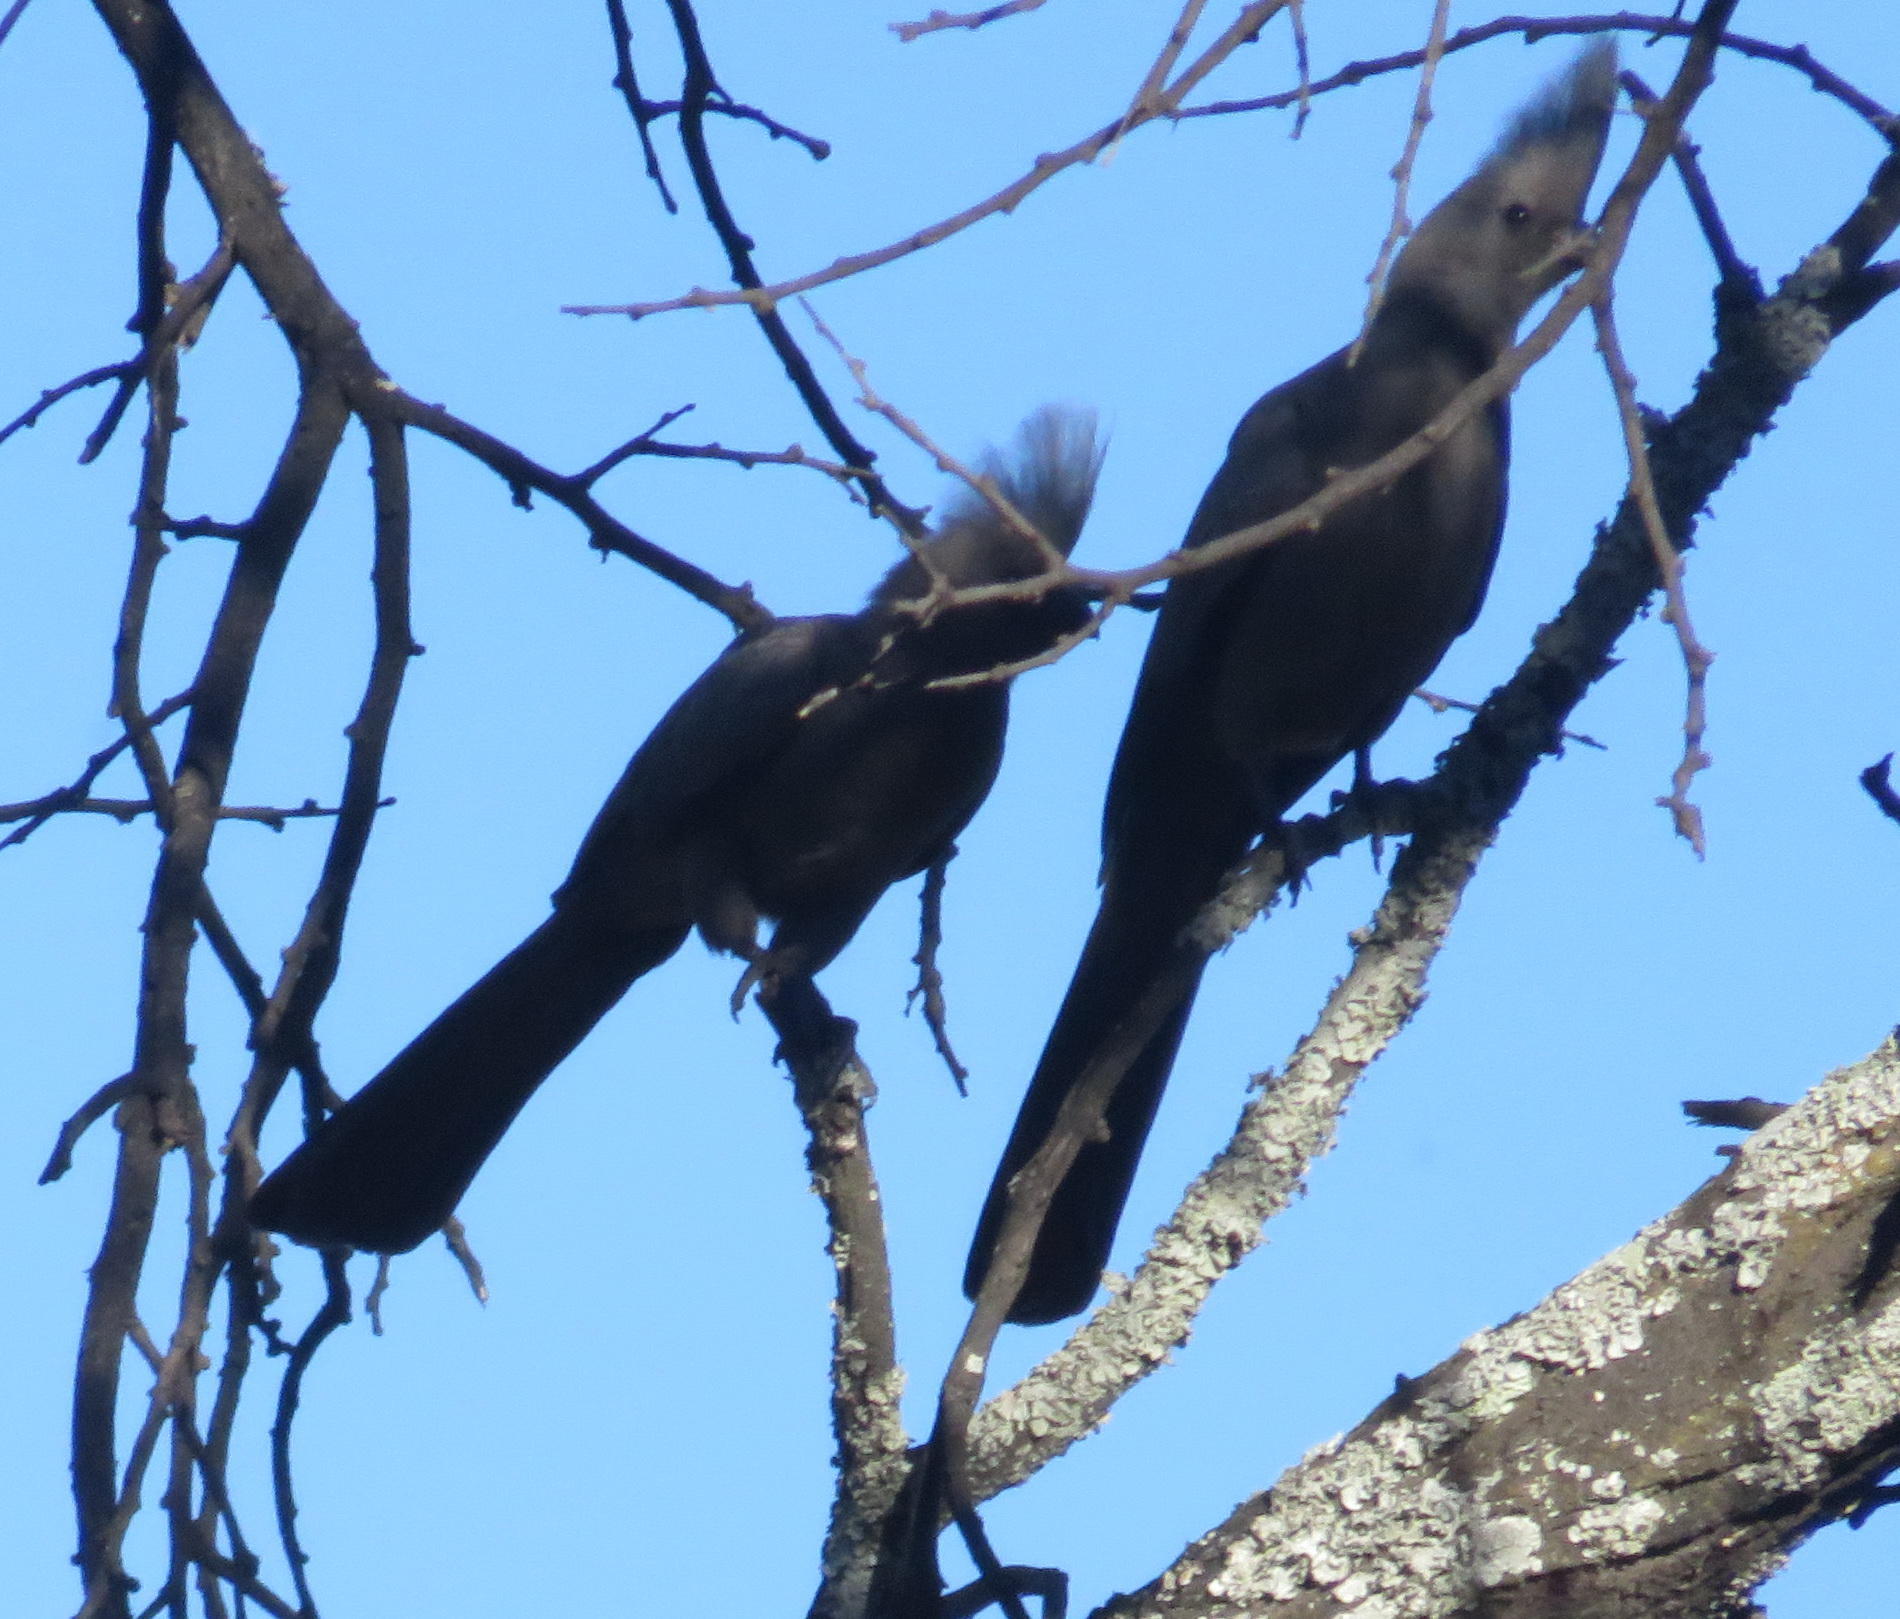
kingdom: Animalia
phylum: Chordata
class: Aves
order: Musophagiformes
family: Musophagidae
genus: Corythaixoides
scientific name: Corythaixoides concolor
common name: Grey go-away-bird
